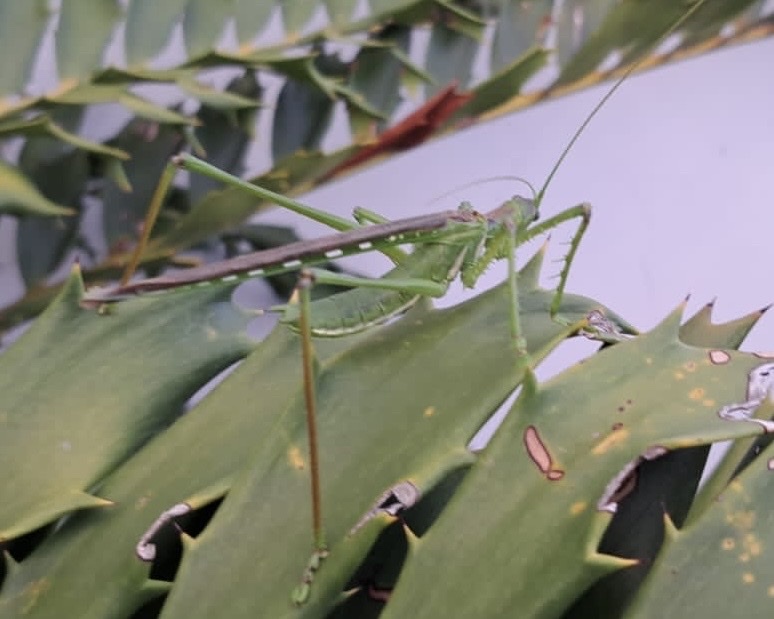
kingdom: Animalia
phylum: Arthropoda
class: Insecta
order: Orthoptera
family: Tettigoniidae
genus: Clonia
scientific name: Clonia wahlbergi
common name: Wahlberg's clonia
